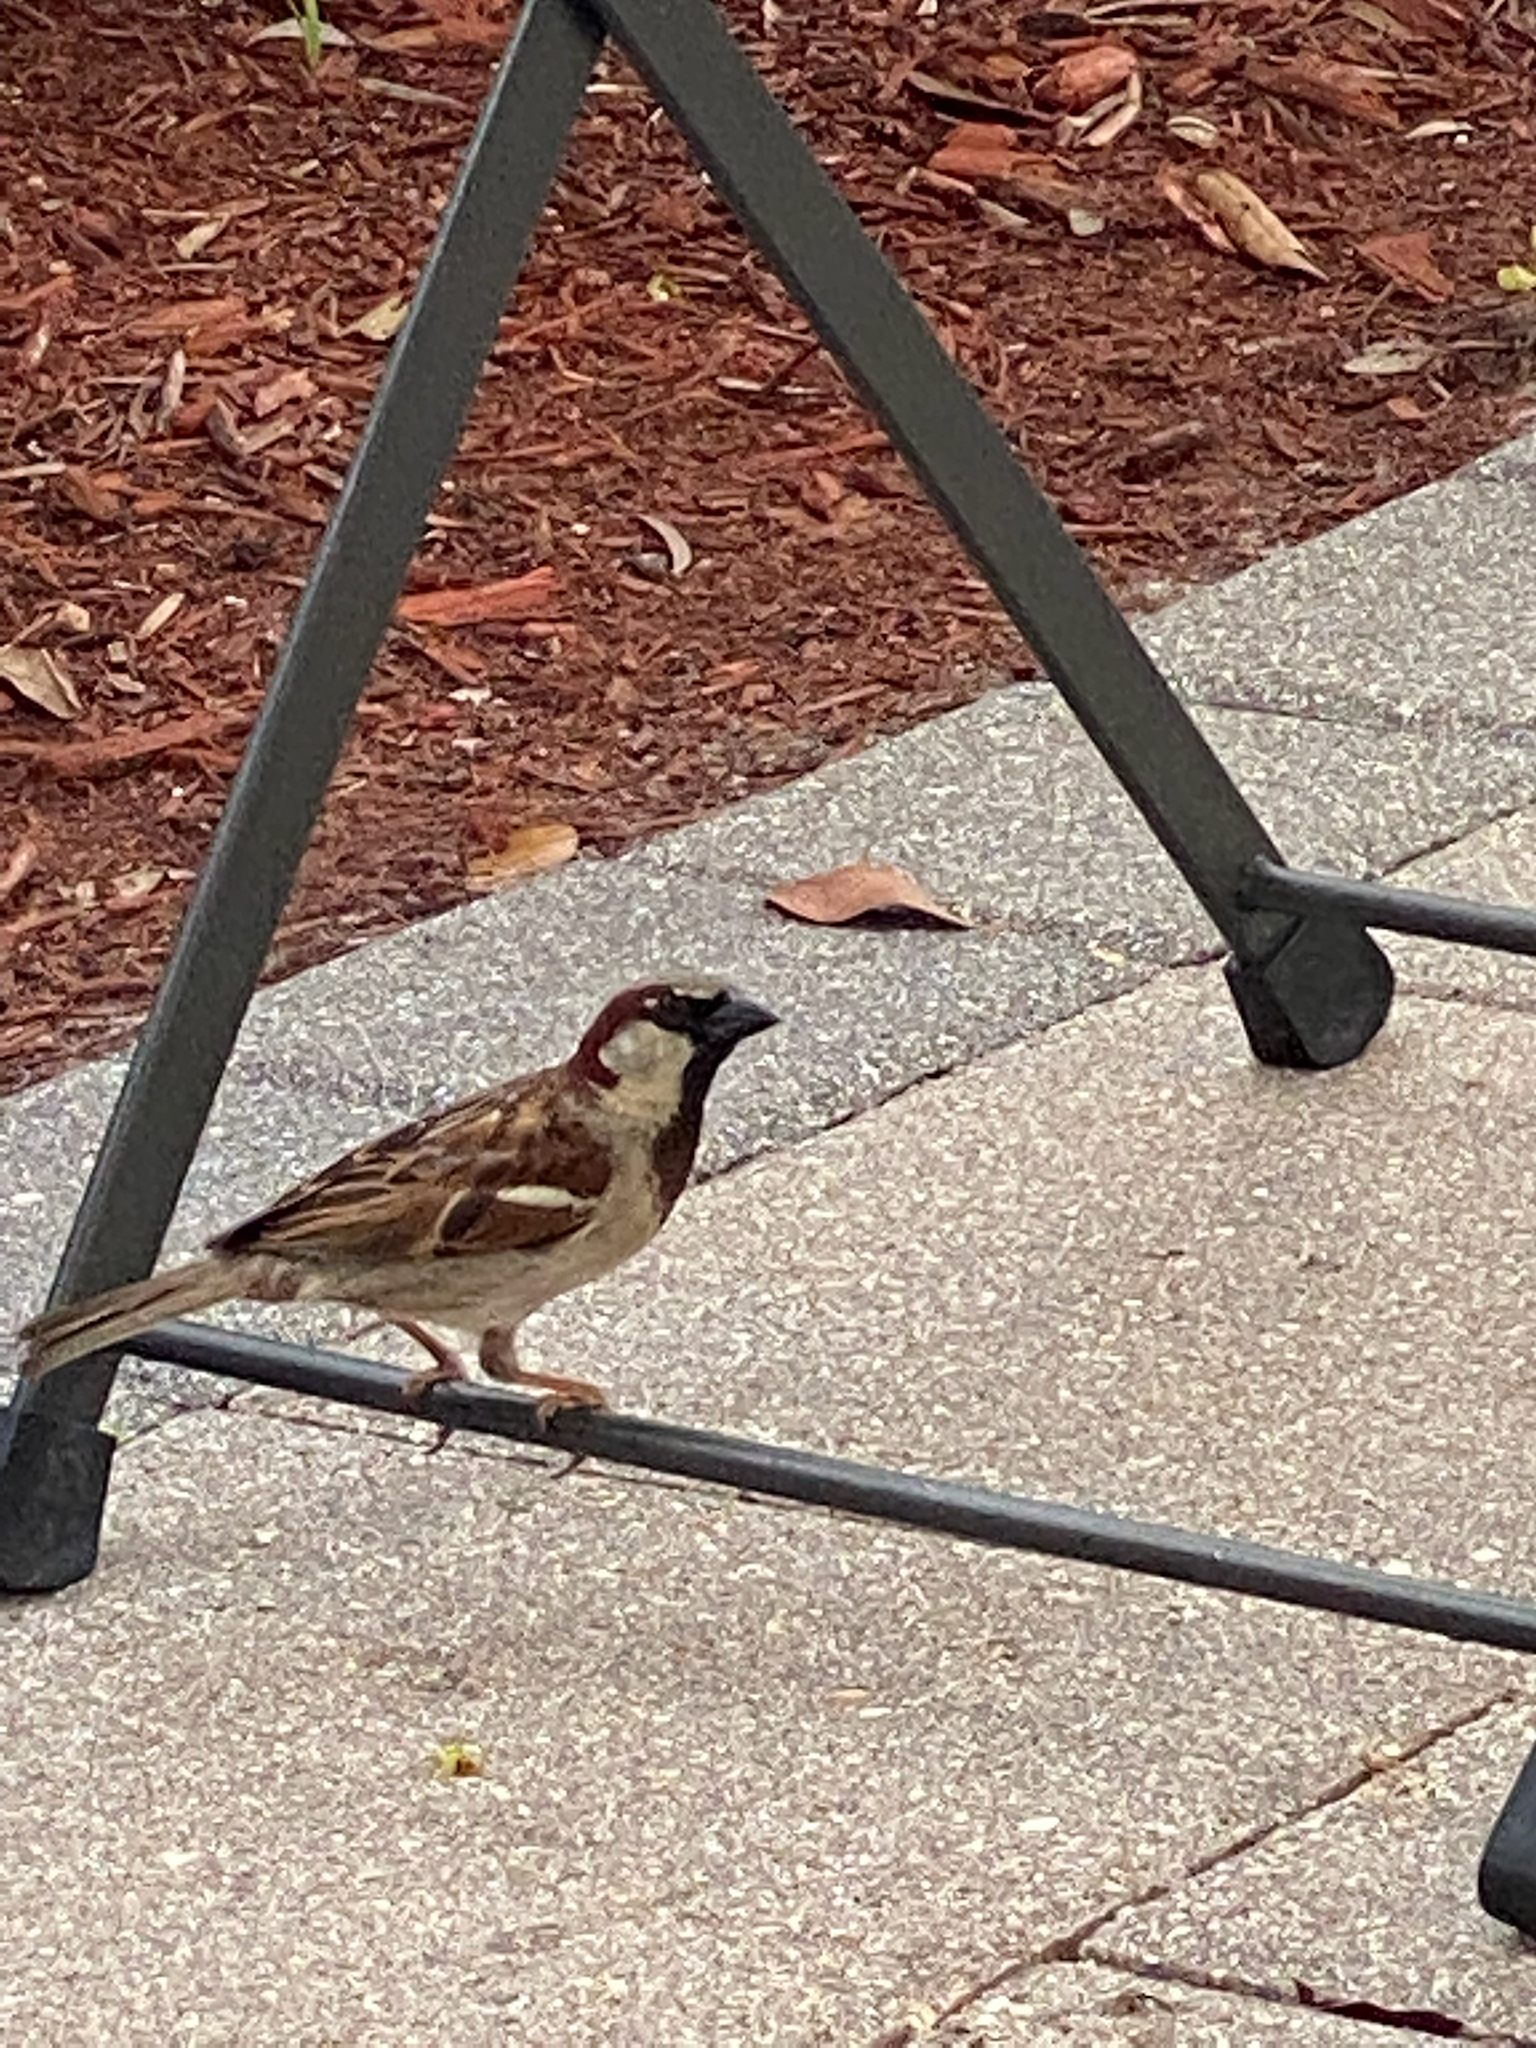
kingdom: Animalia
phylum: Chordata
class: Aves
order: Passeriformes
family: Passeridae
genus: Passer
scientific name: Passer domesticus
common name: House sparrow
